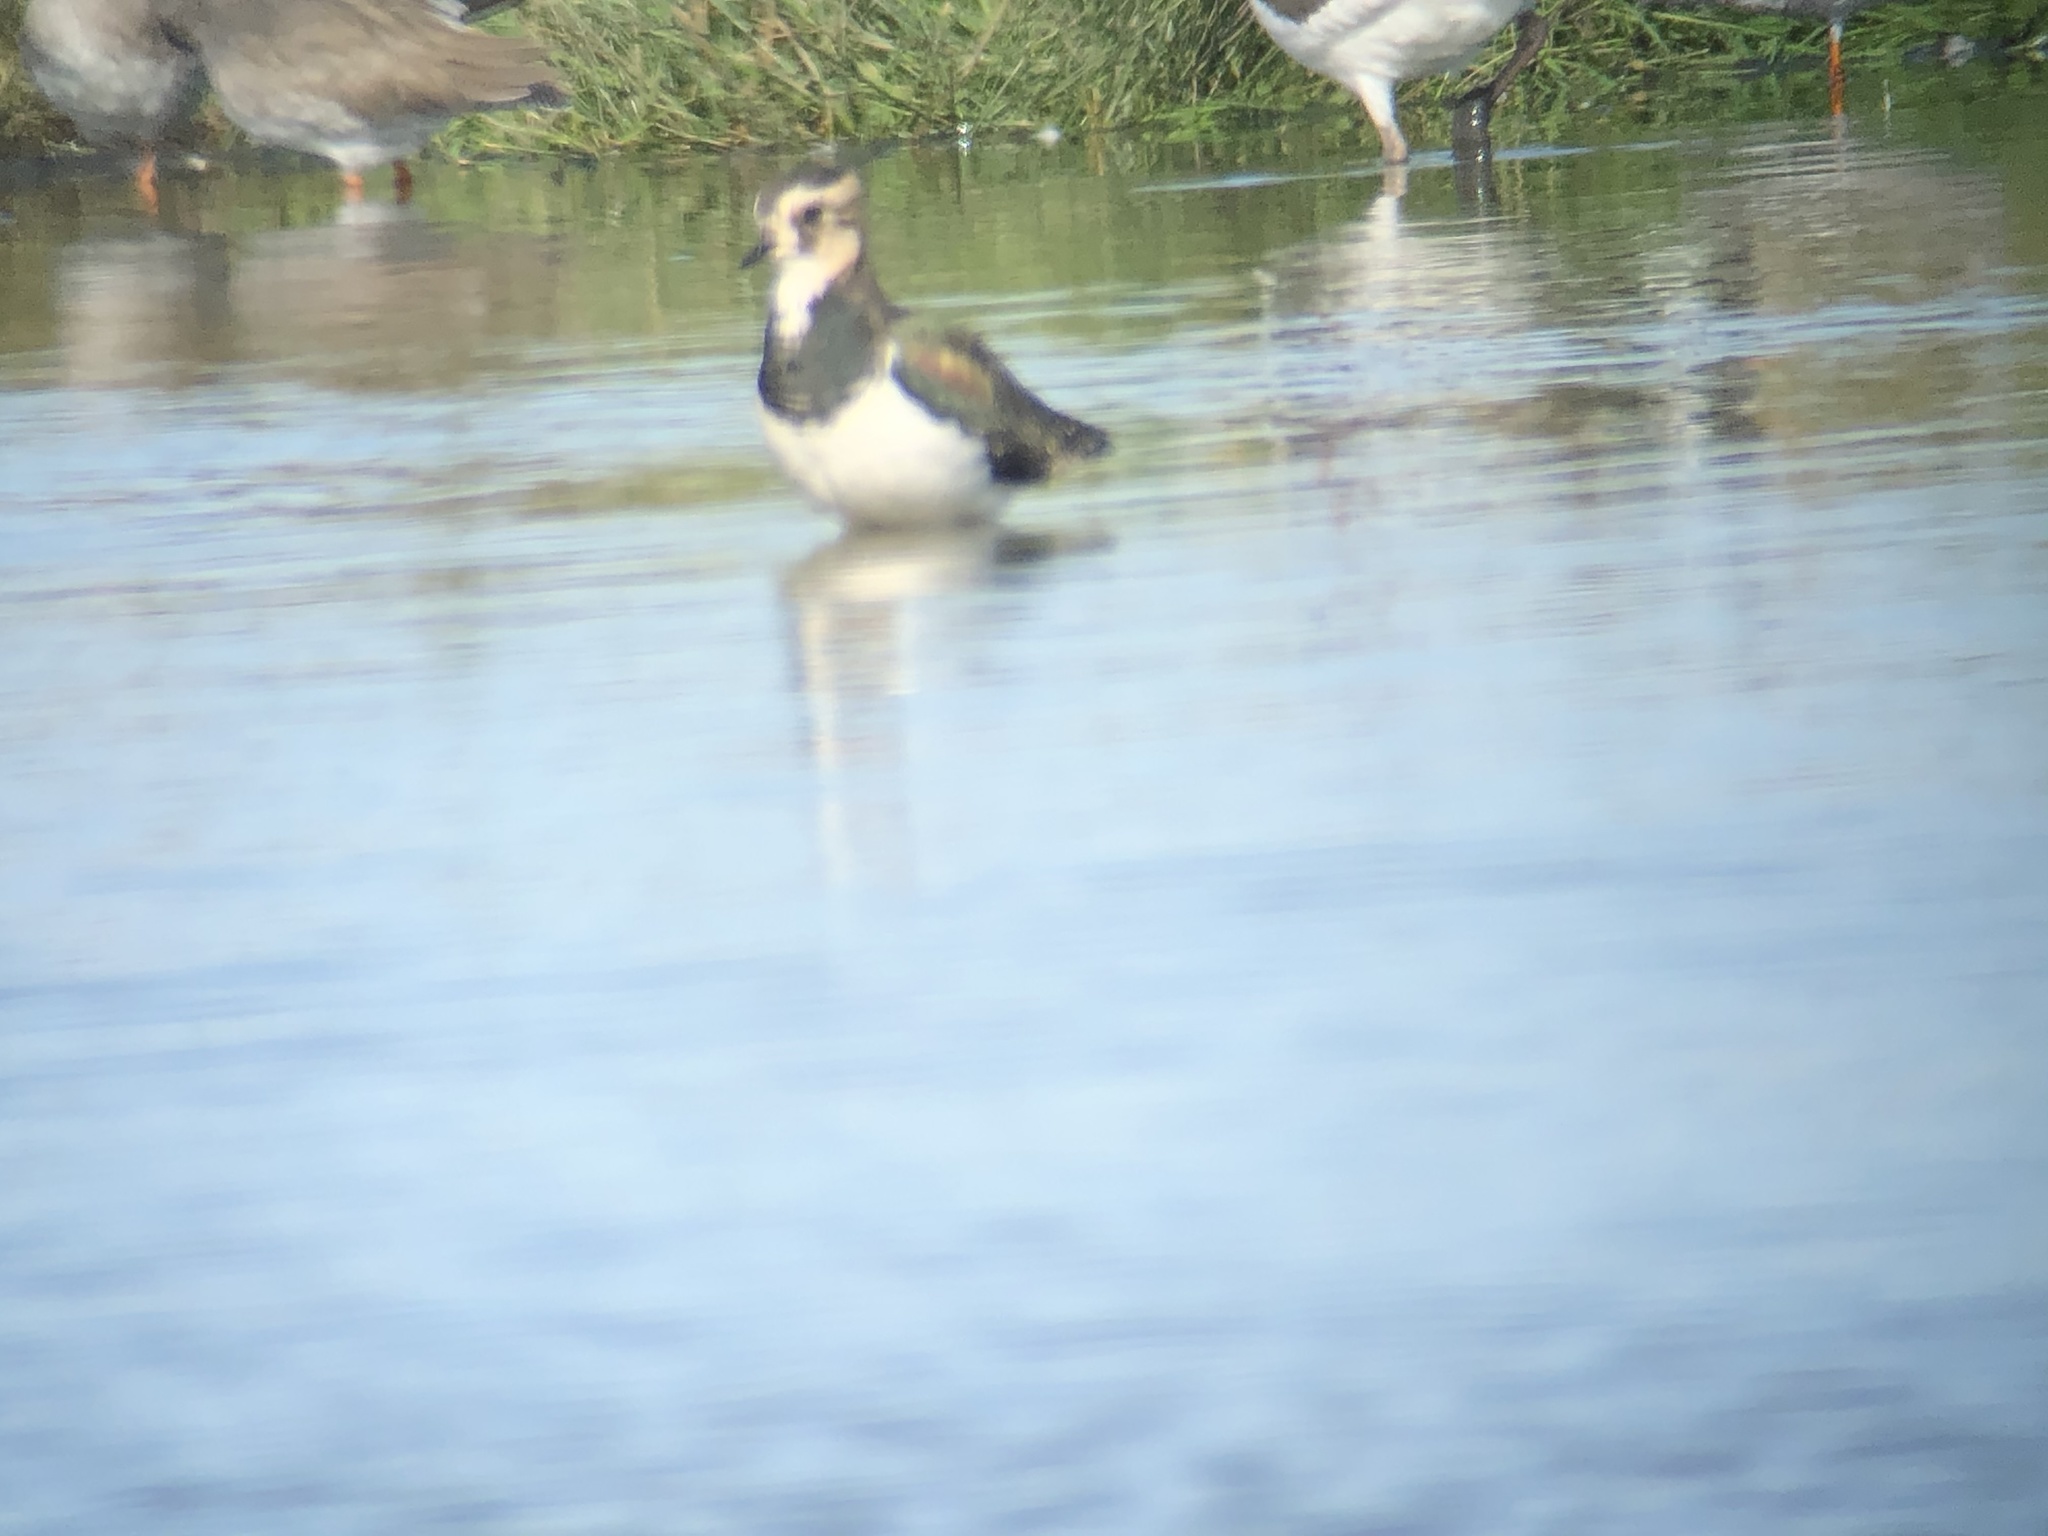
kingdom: Animalia
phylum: Chordata
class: Aves
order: Charadriiformes
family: Charadriidae
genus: Vanellus
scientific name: Vanellus vanellus
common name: Northern lapwing
